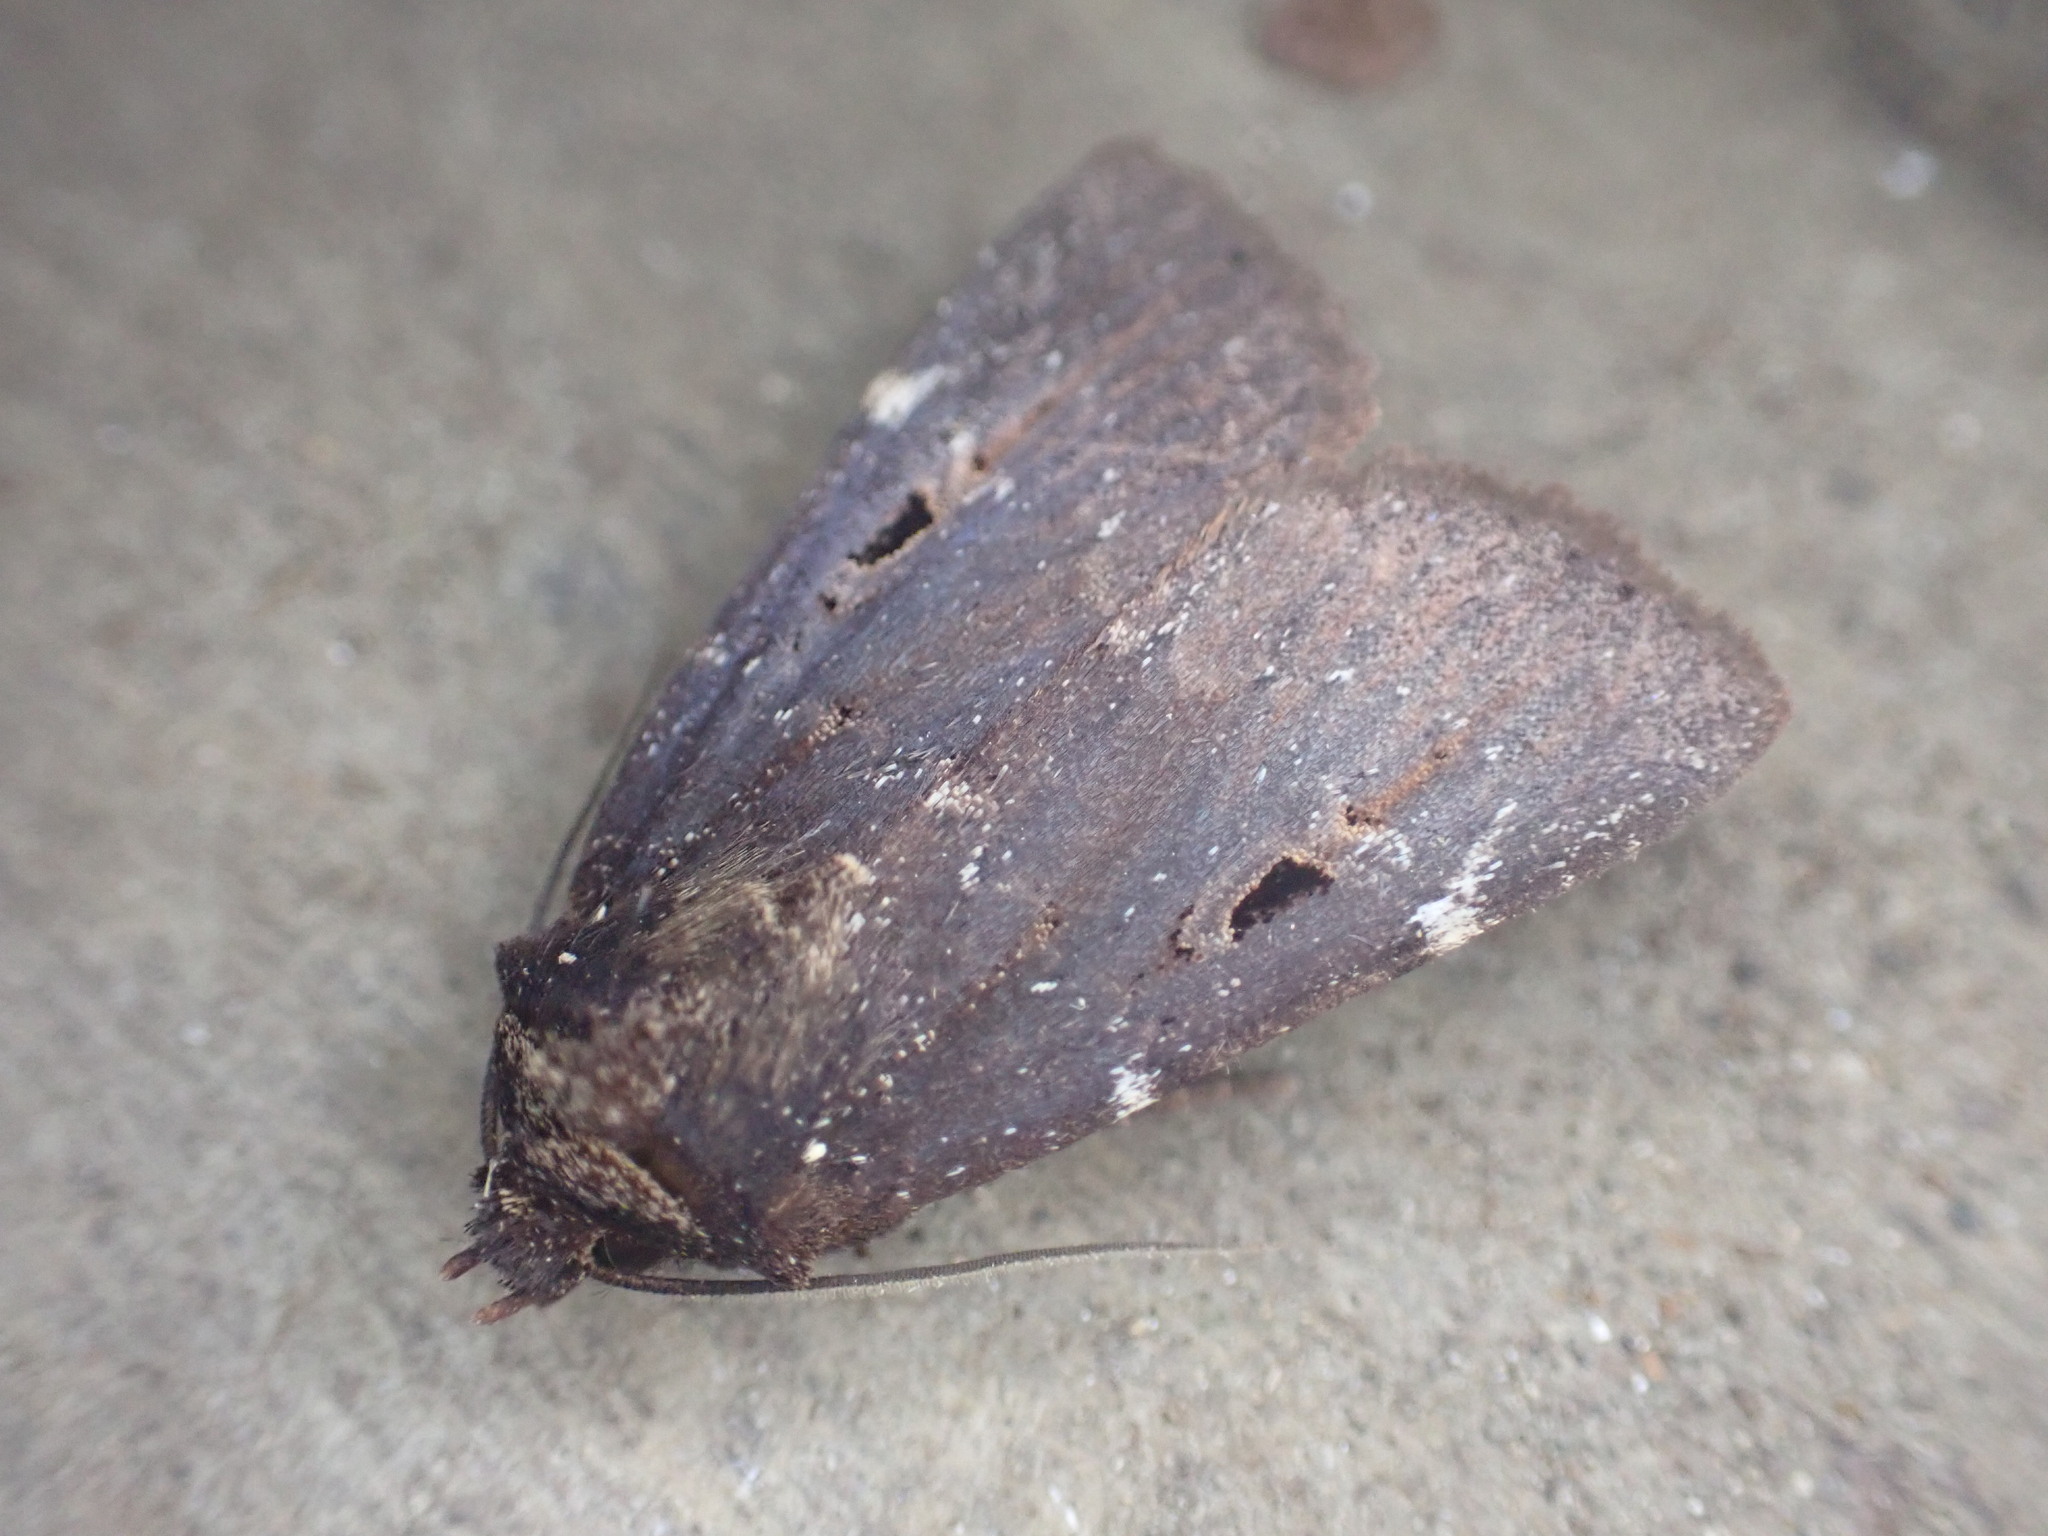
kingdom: Animalia
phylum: Arthropoda
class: Insecta
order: Lepidoptera
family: Noctuidae
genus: Austramathes
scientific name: Austramathes purpurea
